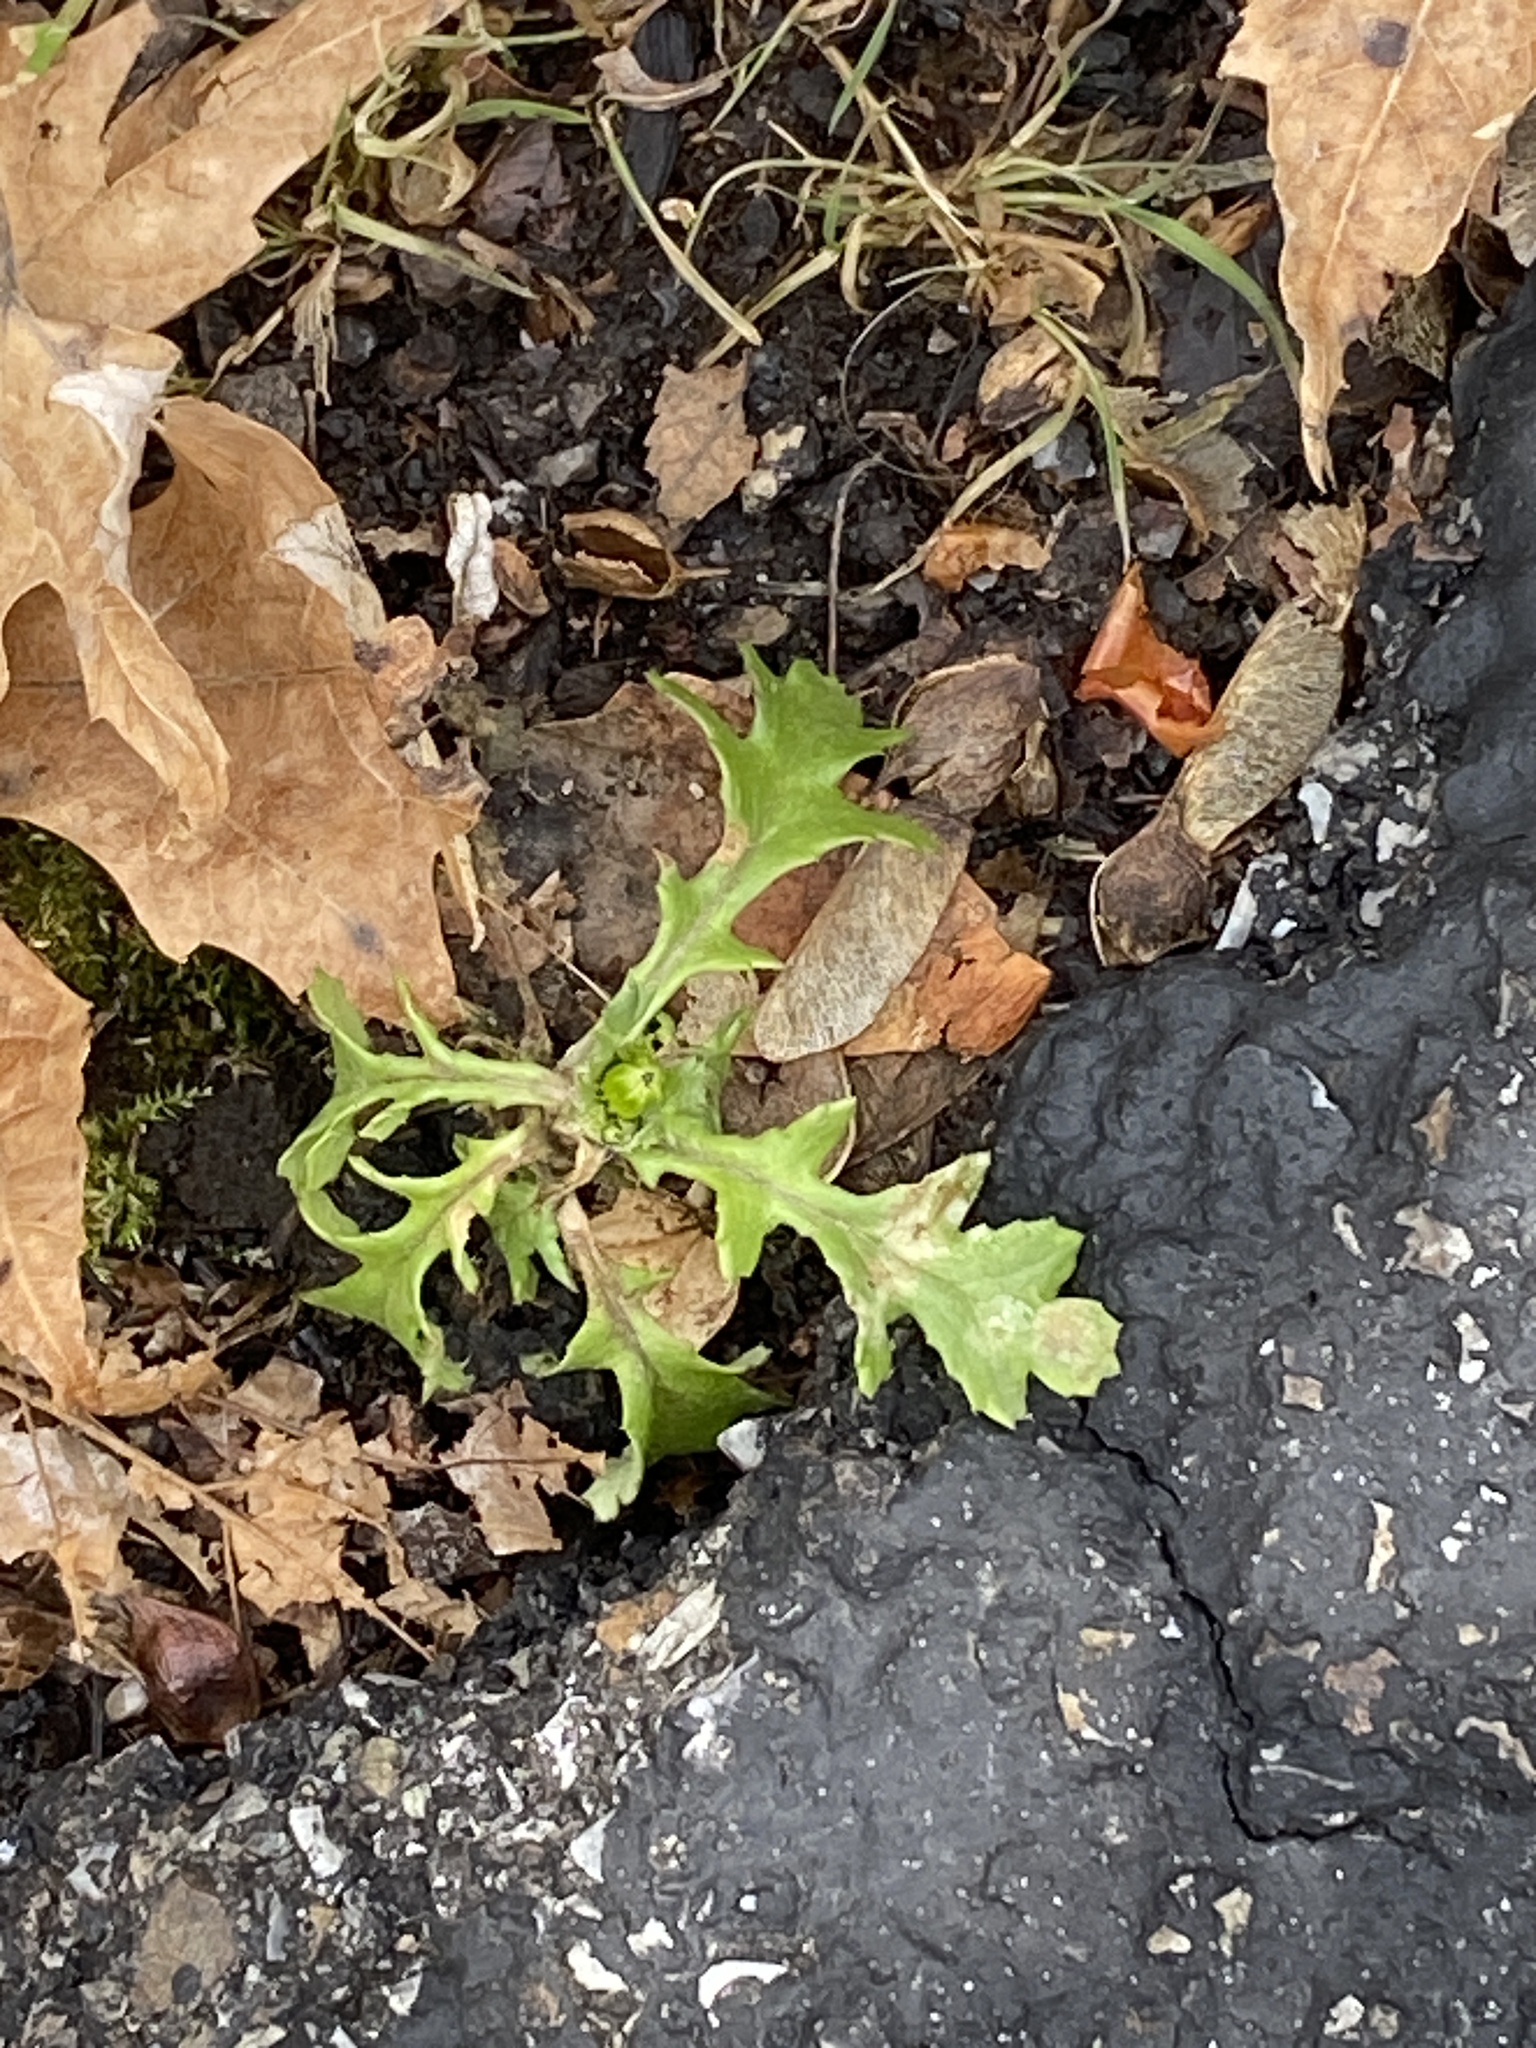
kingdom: Plantae
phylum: Tracheophyta
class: Magnoliopsida
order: Asterales
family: Asteraceae
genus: Senecio
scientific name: Senecio vulgaris
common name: Old-man-in-the-spring
